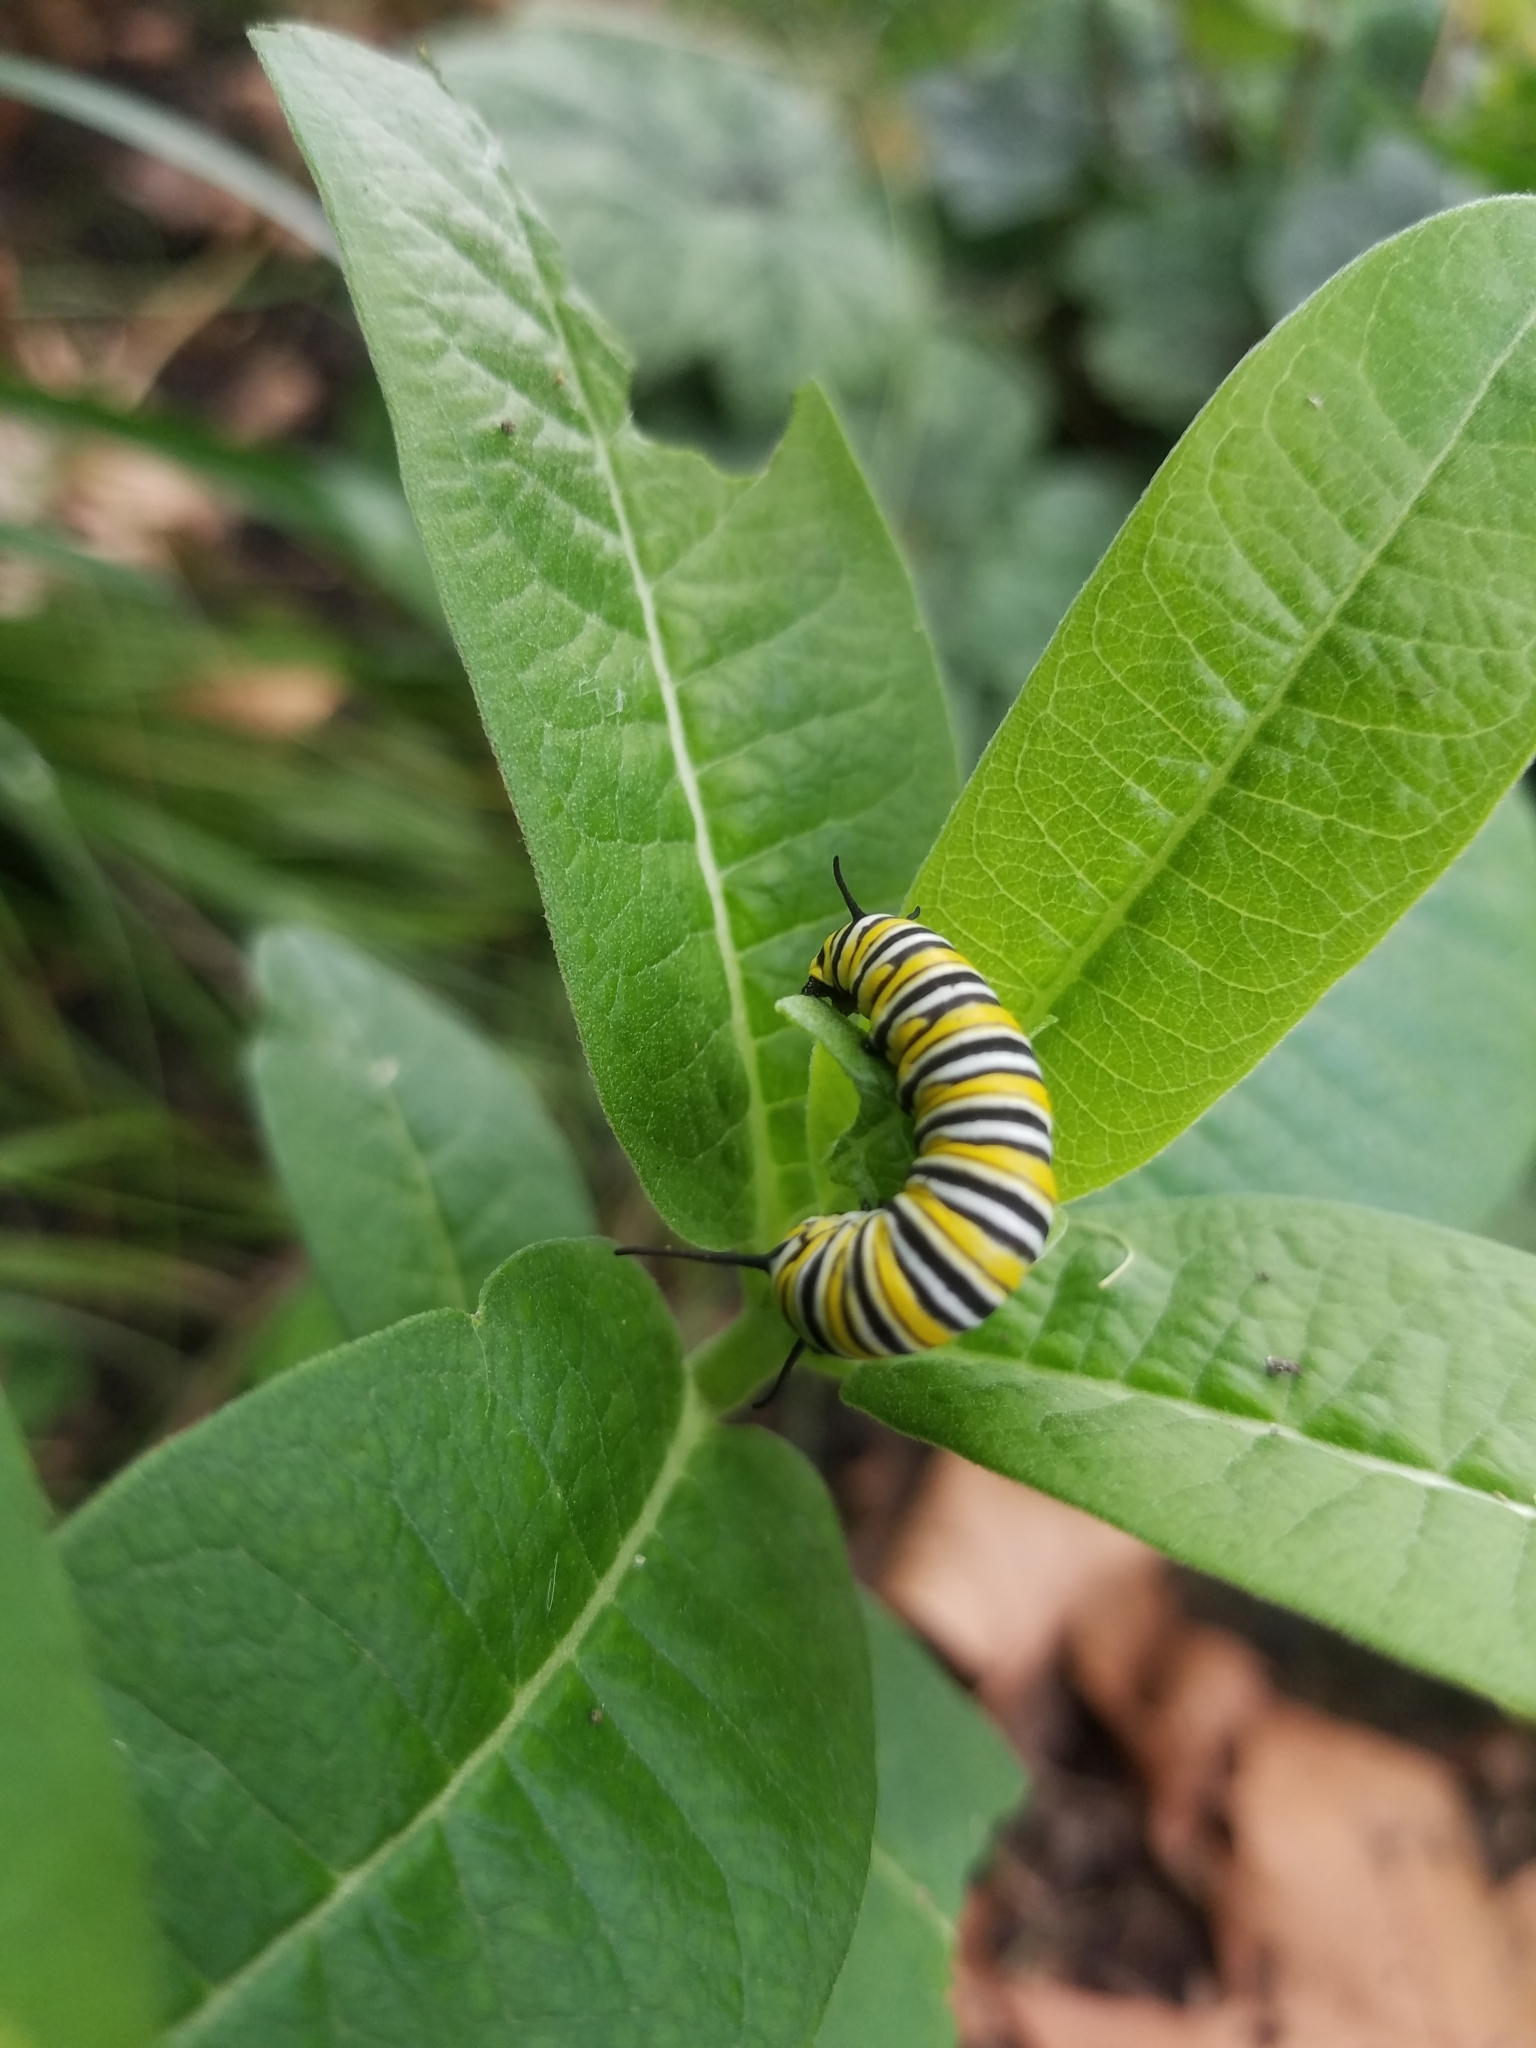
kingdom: Animalia
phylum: Arthropoda
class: Insecta
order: Lepidoptera
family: Nymphalidae
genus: Danaus
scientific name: Danaus plexippus
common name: Monarch
